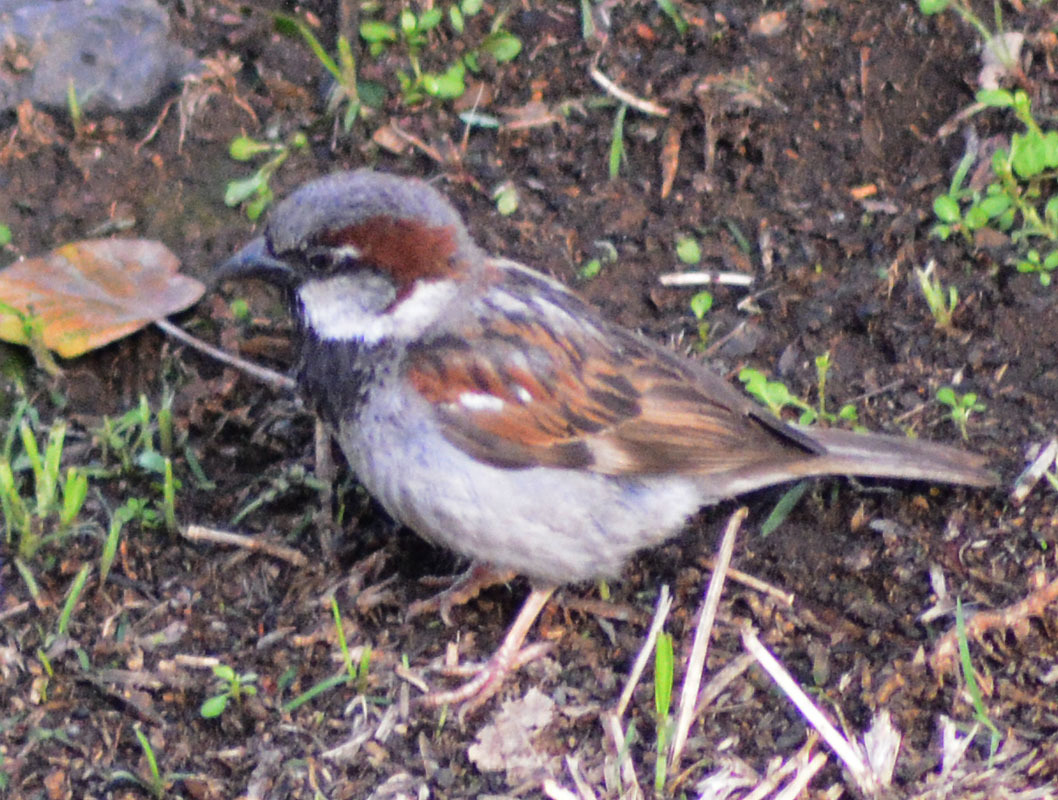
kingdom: Animalia
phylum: Chordata
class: Aves
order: Passeriformes
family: Passeridae
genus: Passer
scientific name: Passer domesticus
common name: House sparrow
